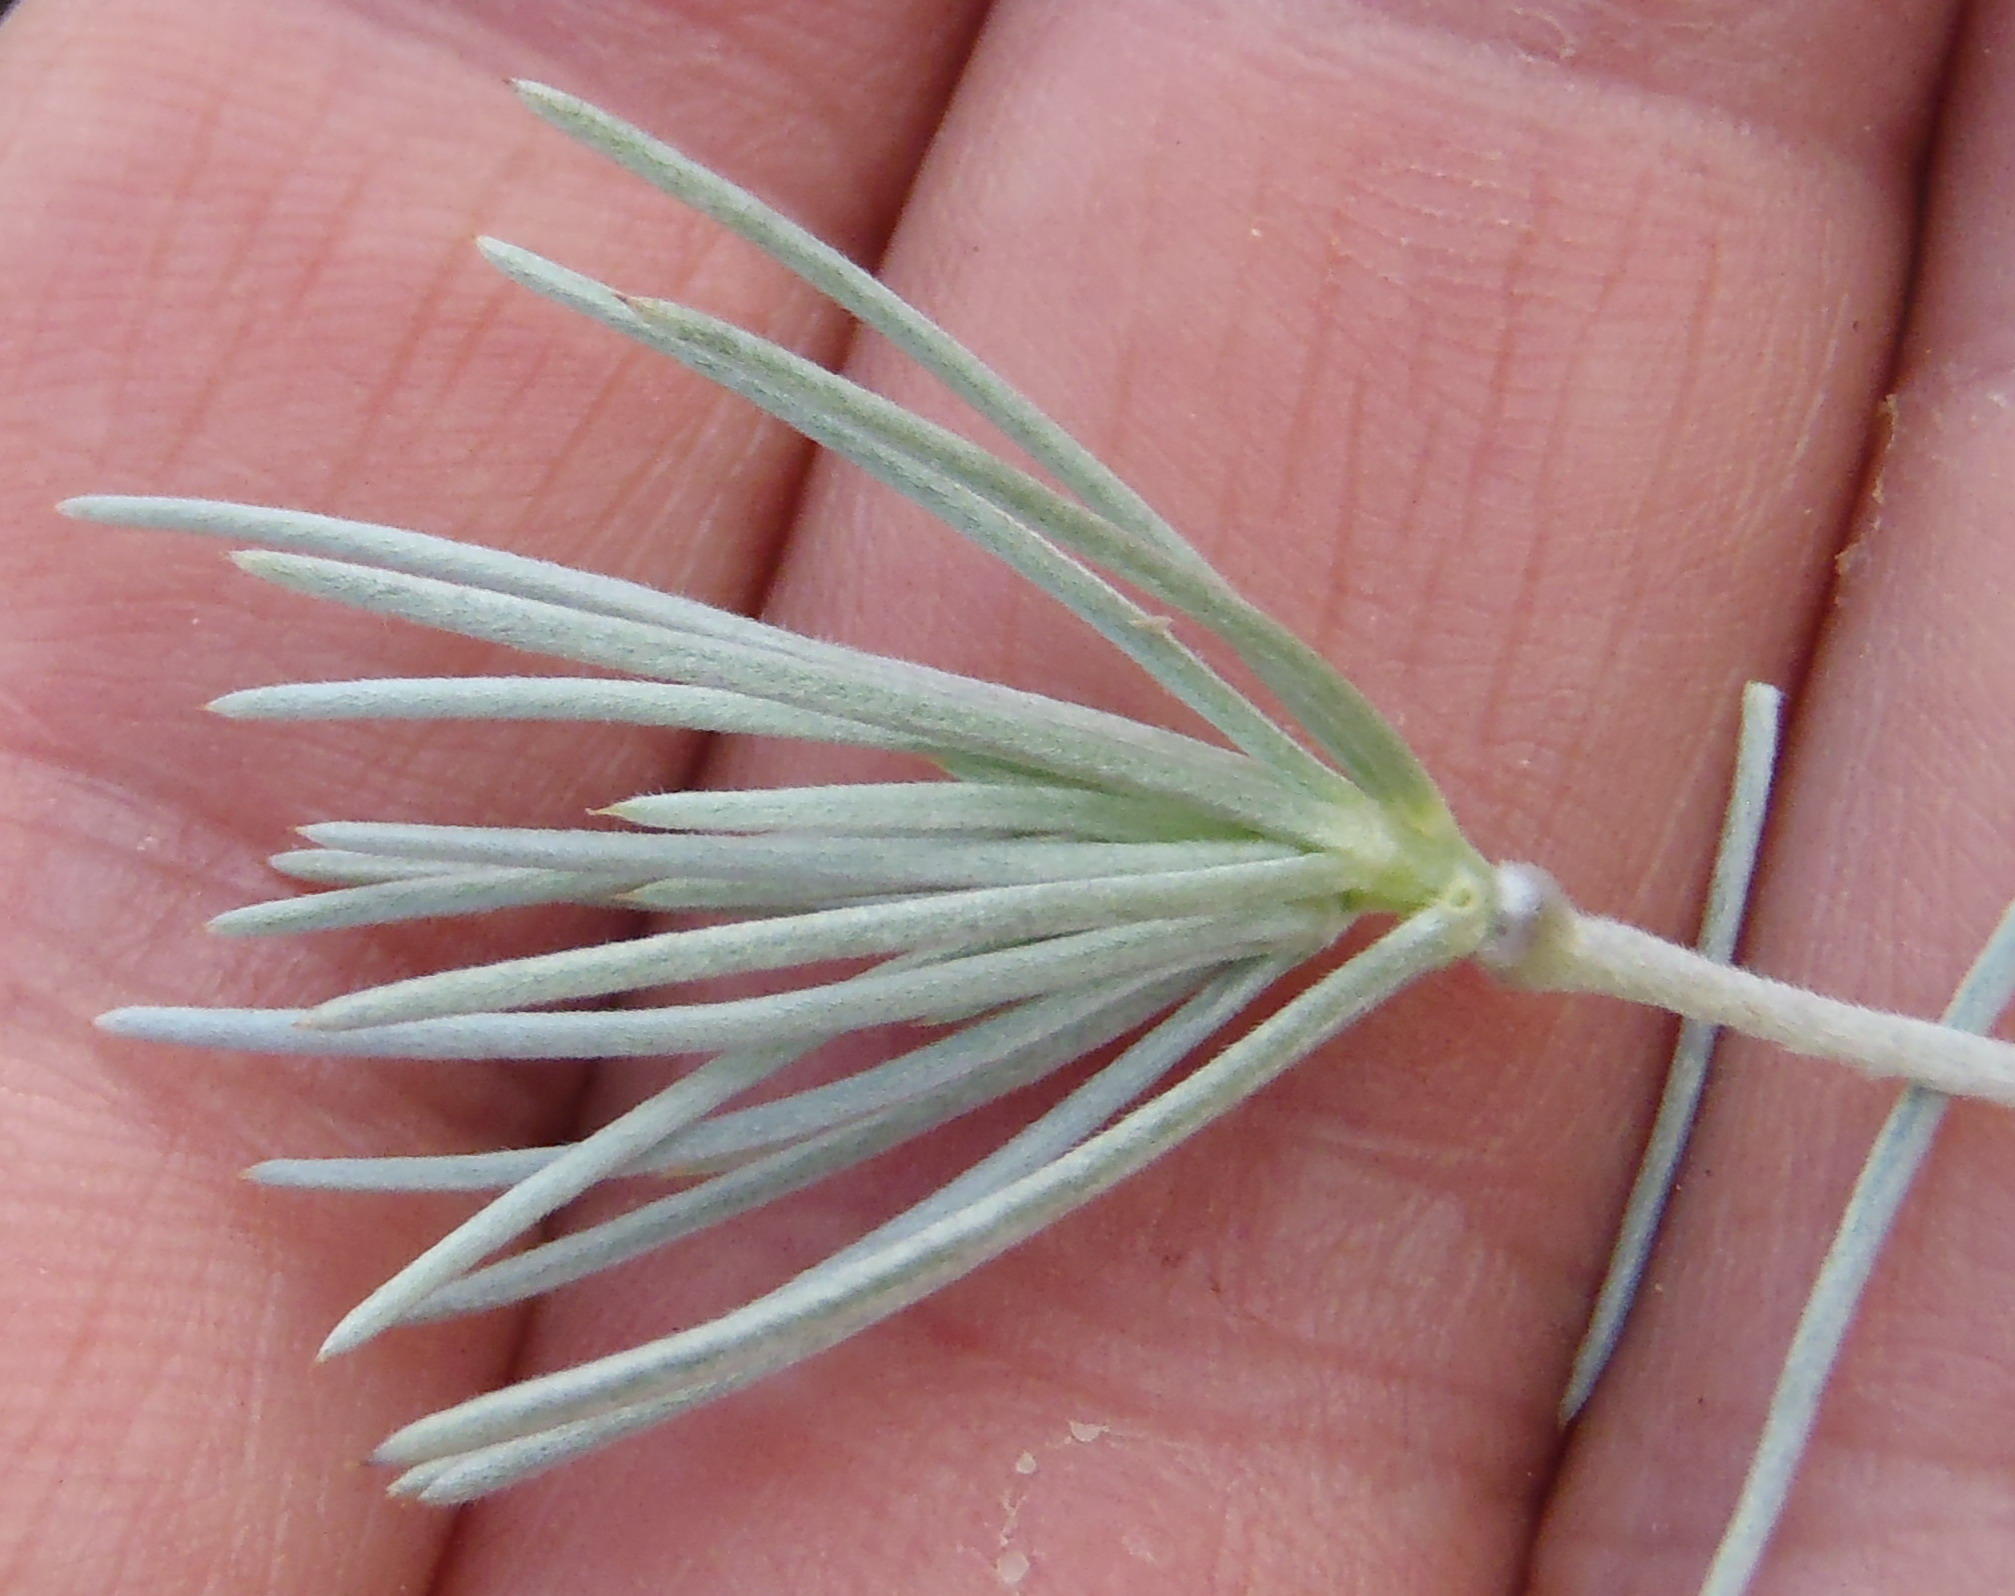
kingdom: Plantae
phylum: Tracheophyta
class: Magnoliopsida
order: Fabales
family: Fabaceae
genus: Aspalathus
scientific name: Aspalathus florifera
